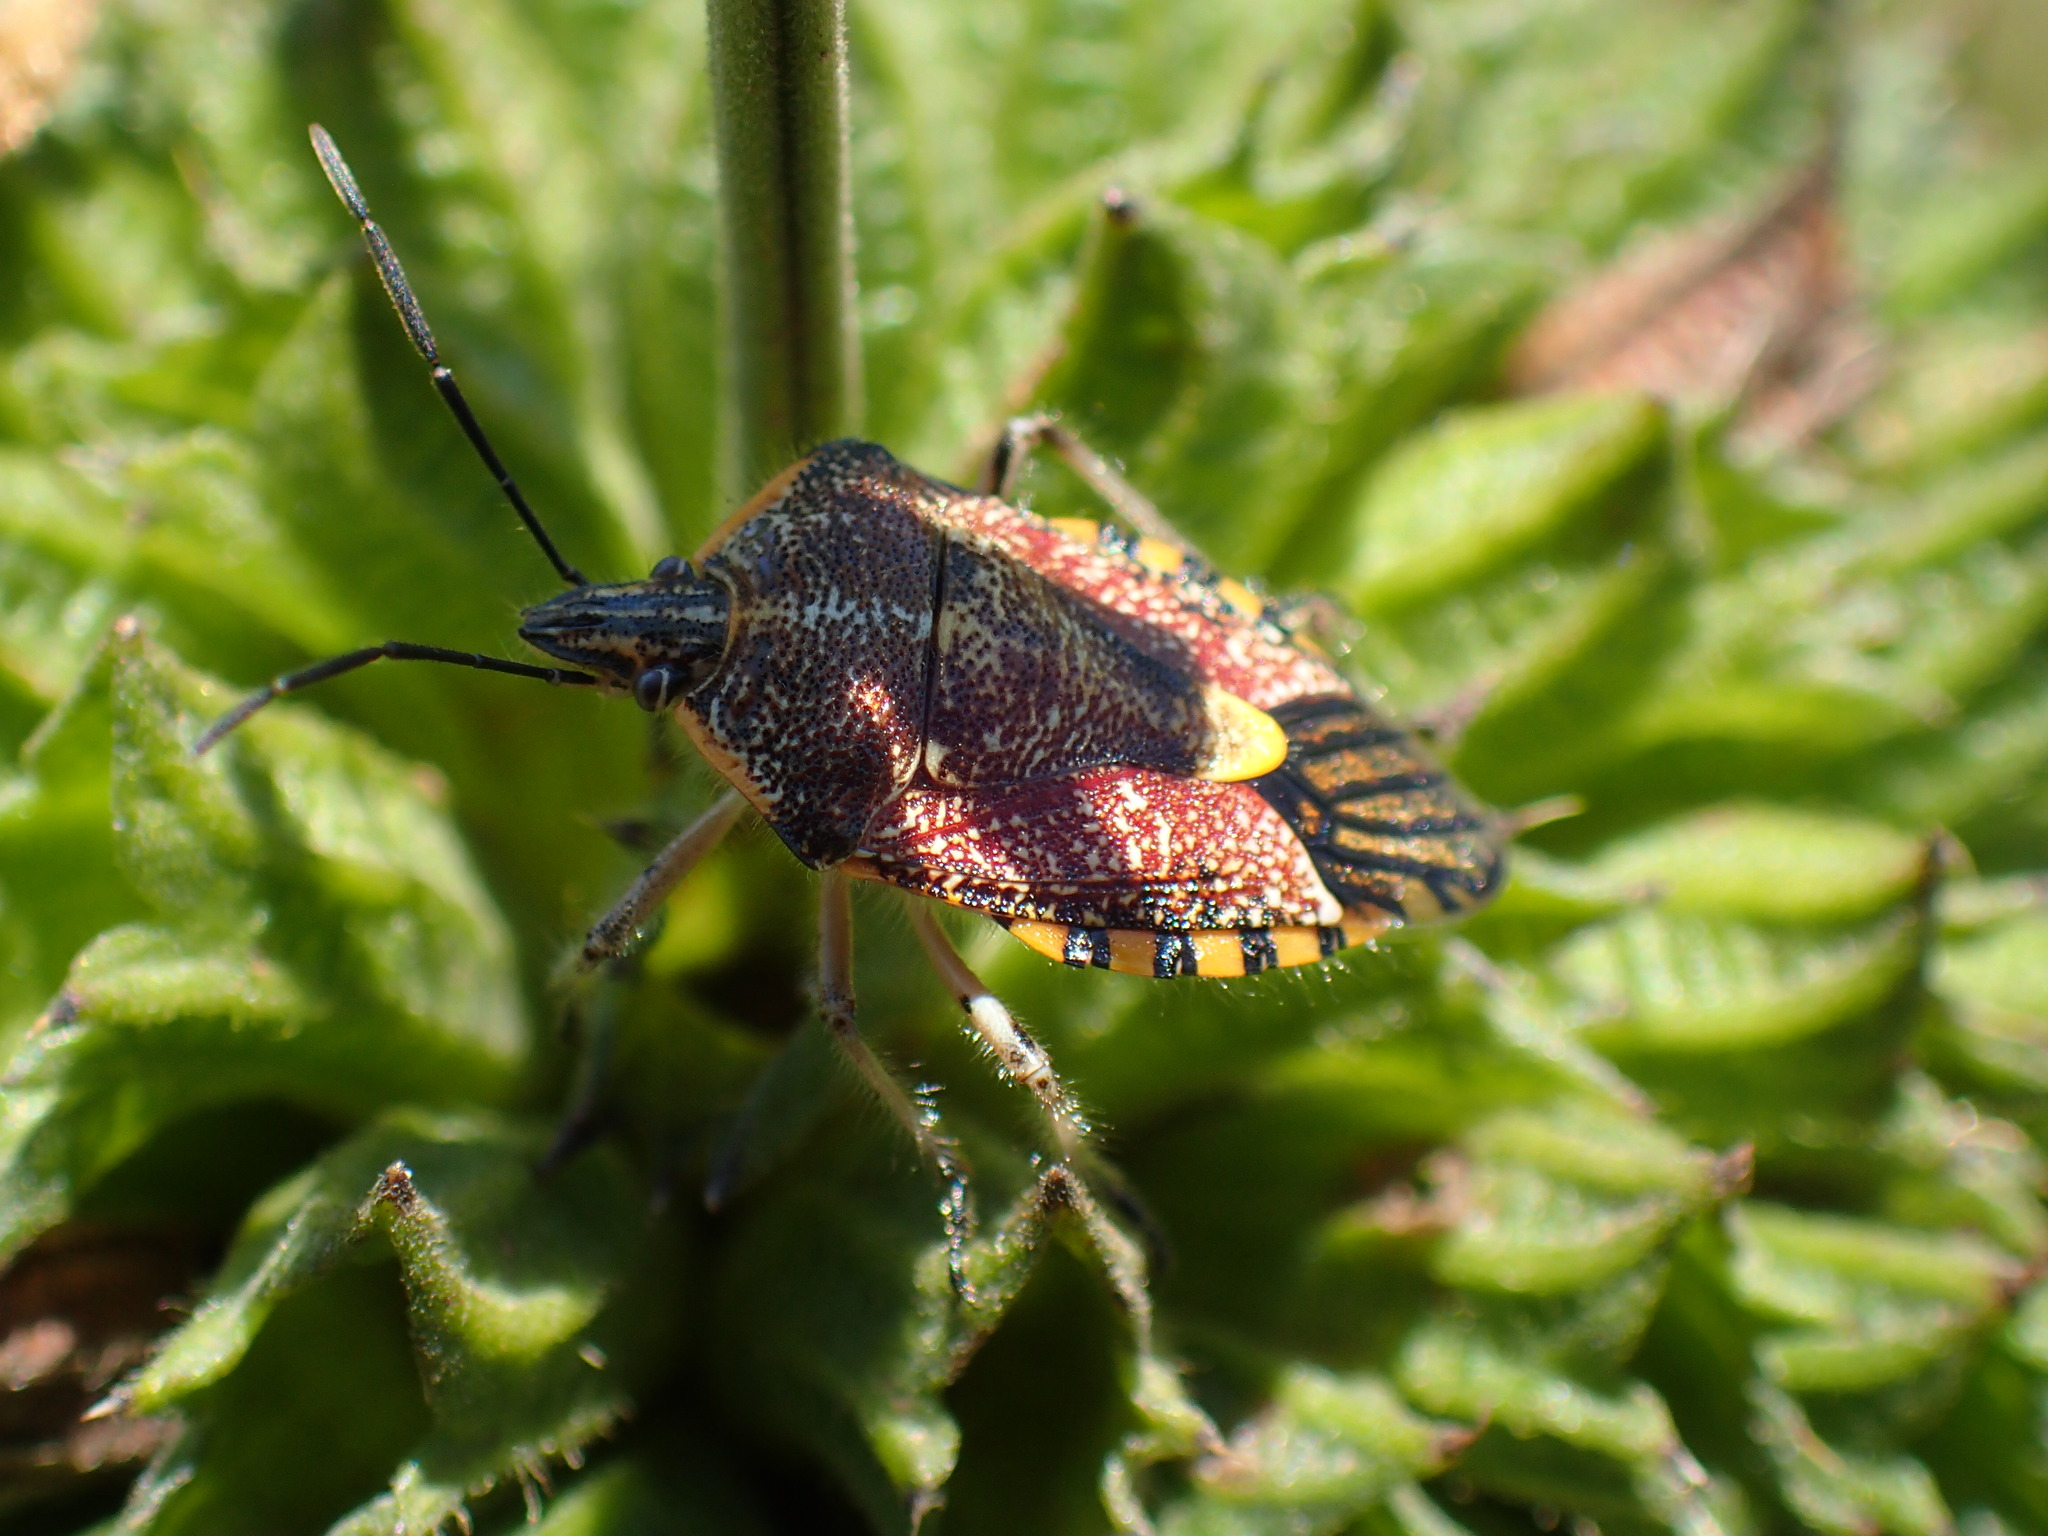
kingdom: Animalia
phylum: Arthropoda
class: Insecta
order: Hemiptera
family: Pentatomidae
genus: Agonoscelis
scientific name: Agonoscelis versicoloratus
